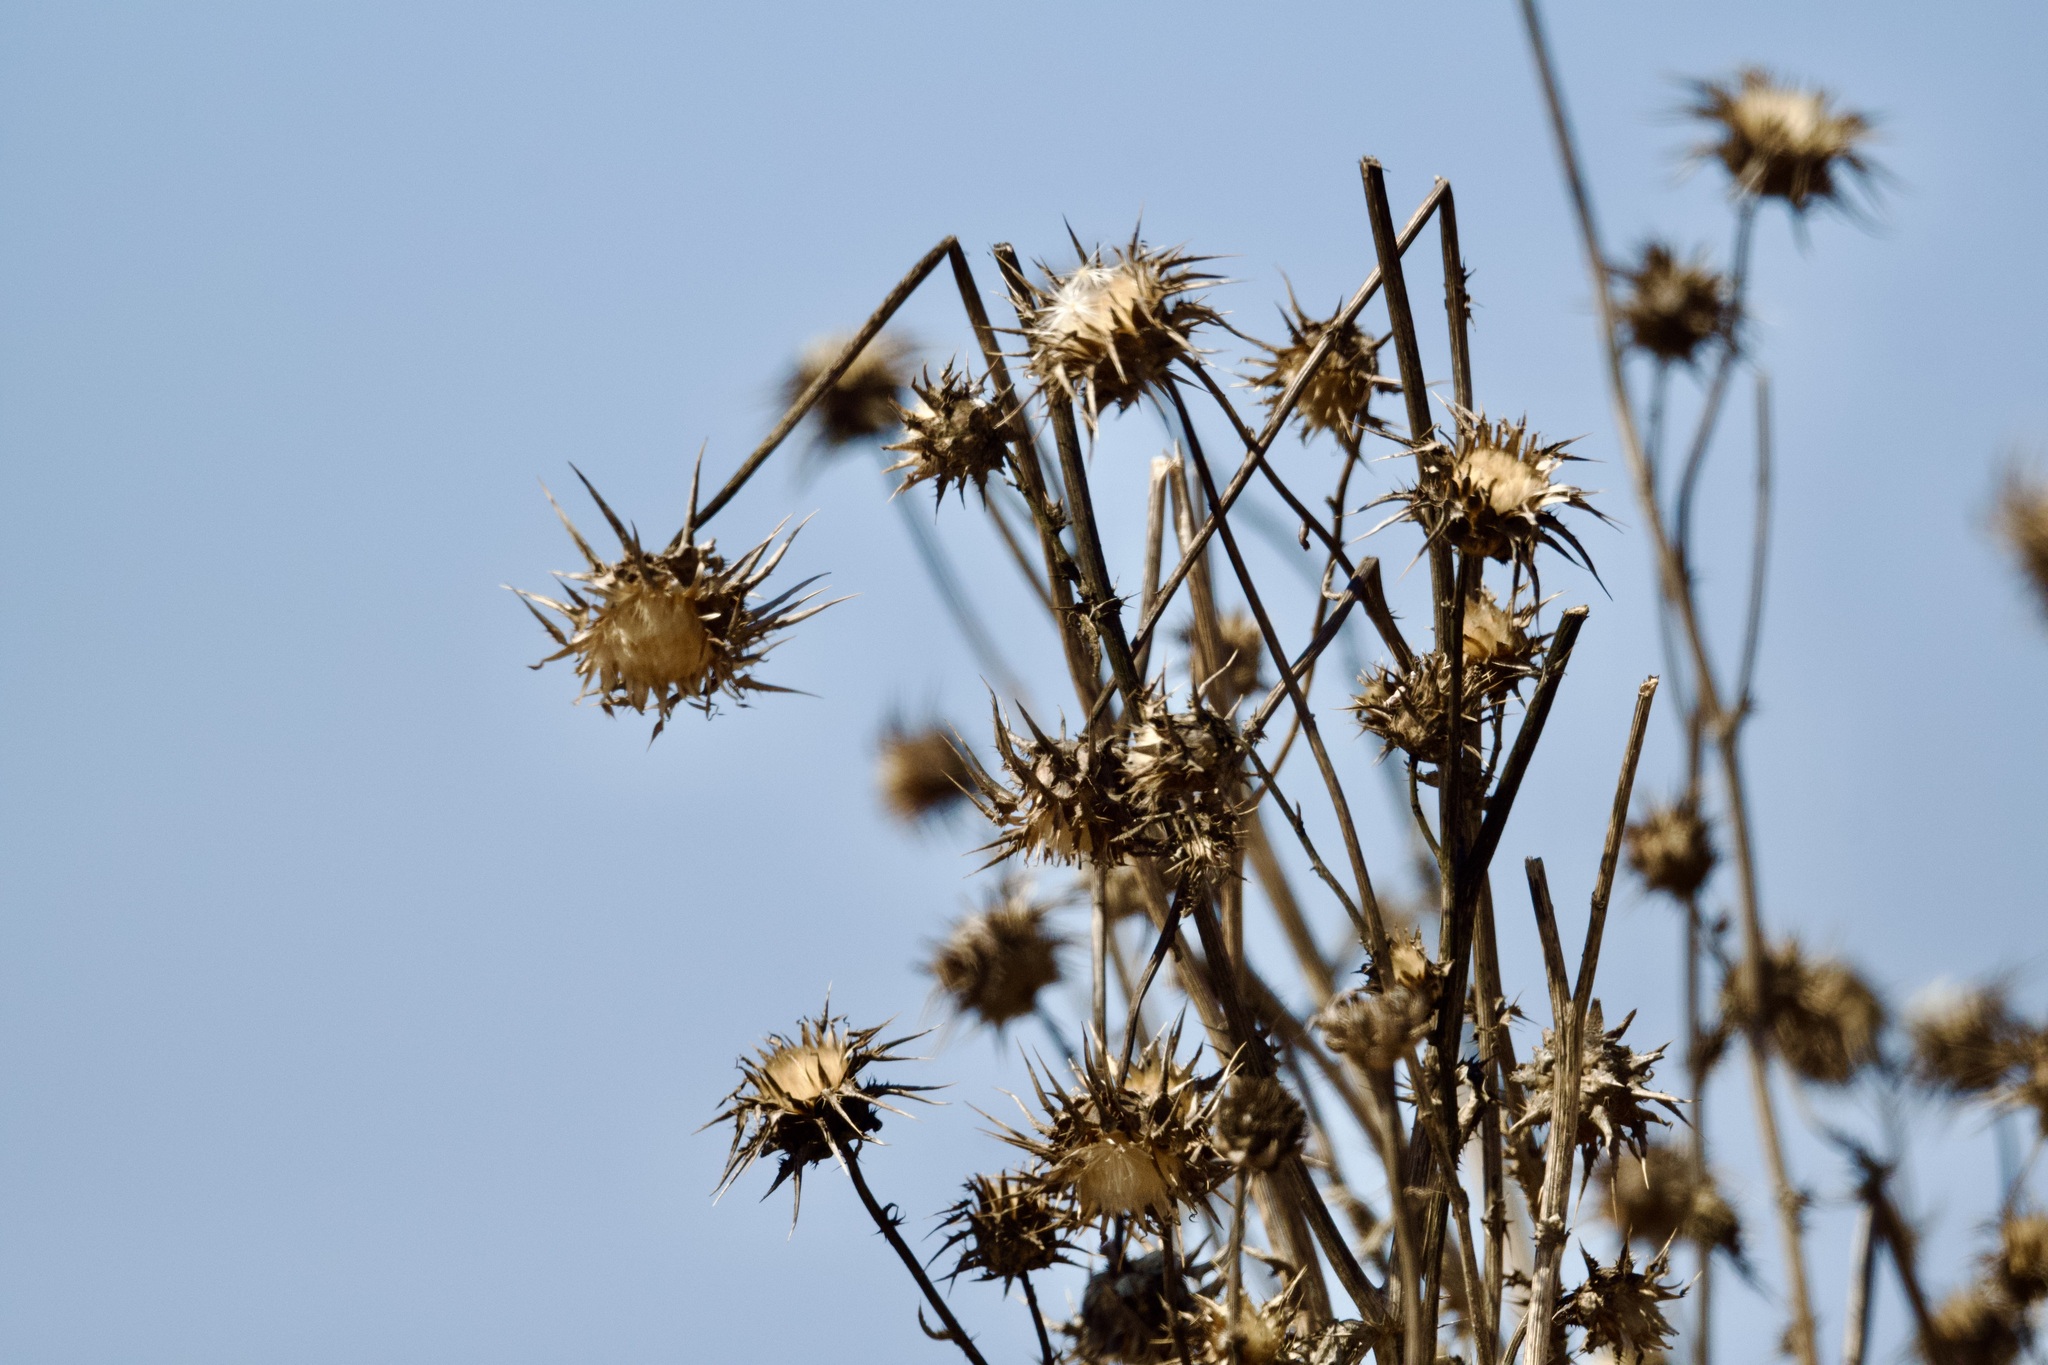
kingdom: Plantae
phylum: Tracheophyta
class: Magnoliopsida
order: Asterales
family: Asteraceae
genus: Silybum
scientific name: Silybum marianum
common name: Milk thistle
